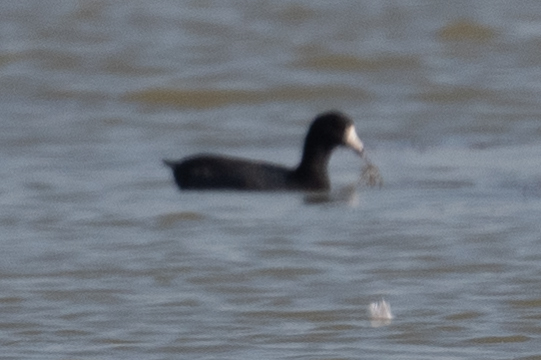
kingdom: Animalia
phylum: Chordata
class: Aves
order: Gruiformes
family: Rallidae
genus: Fulica
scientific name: Fulica americana
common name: American coot
